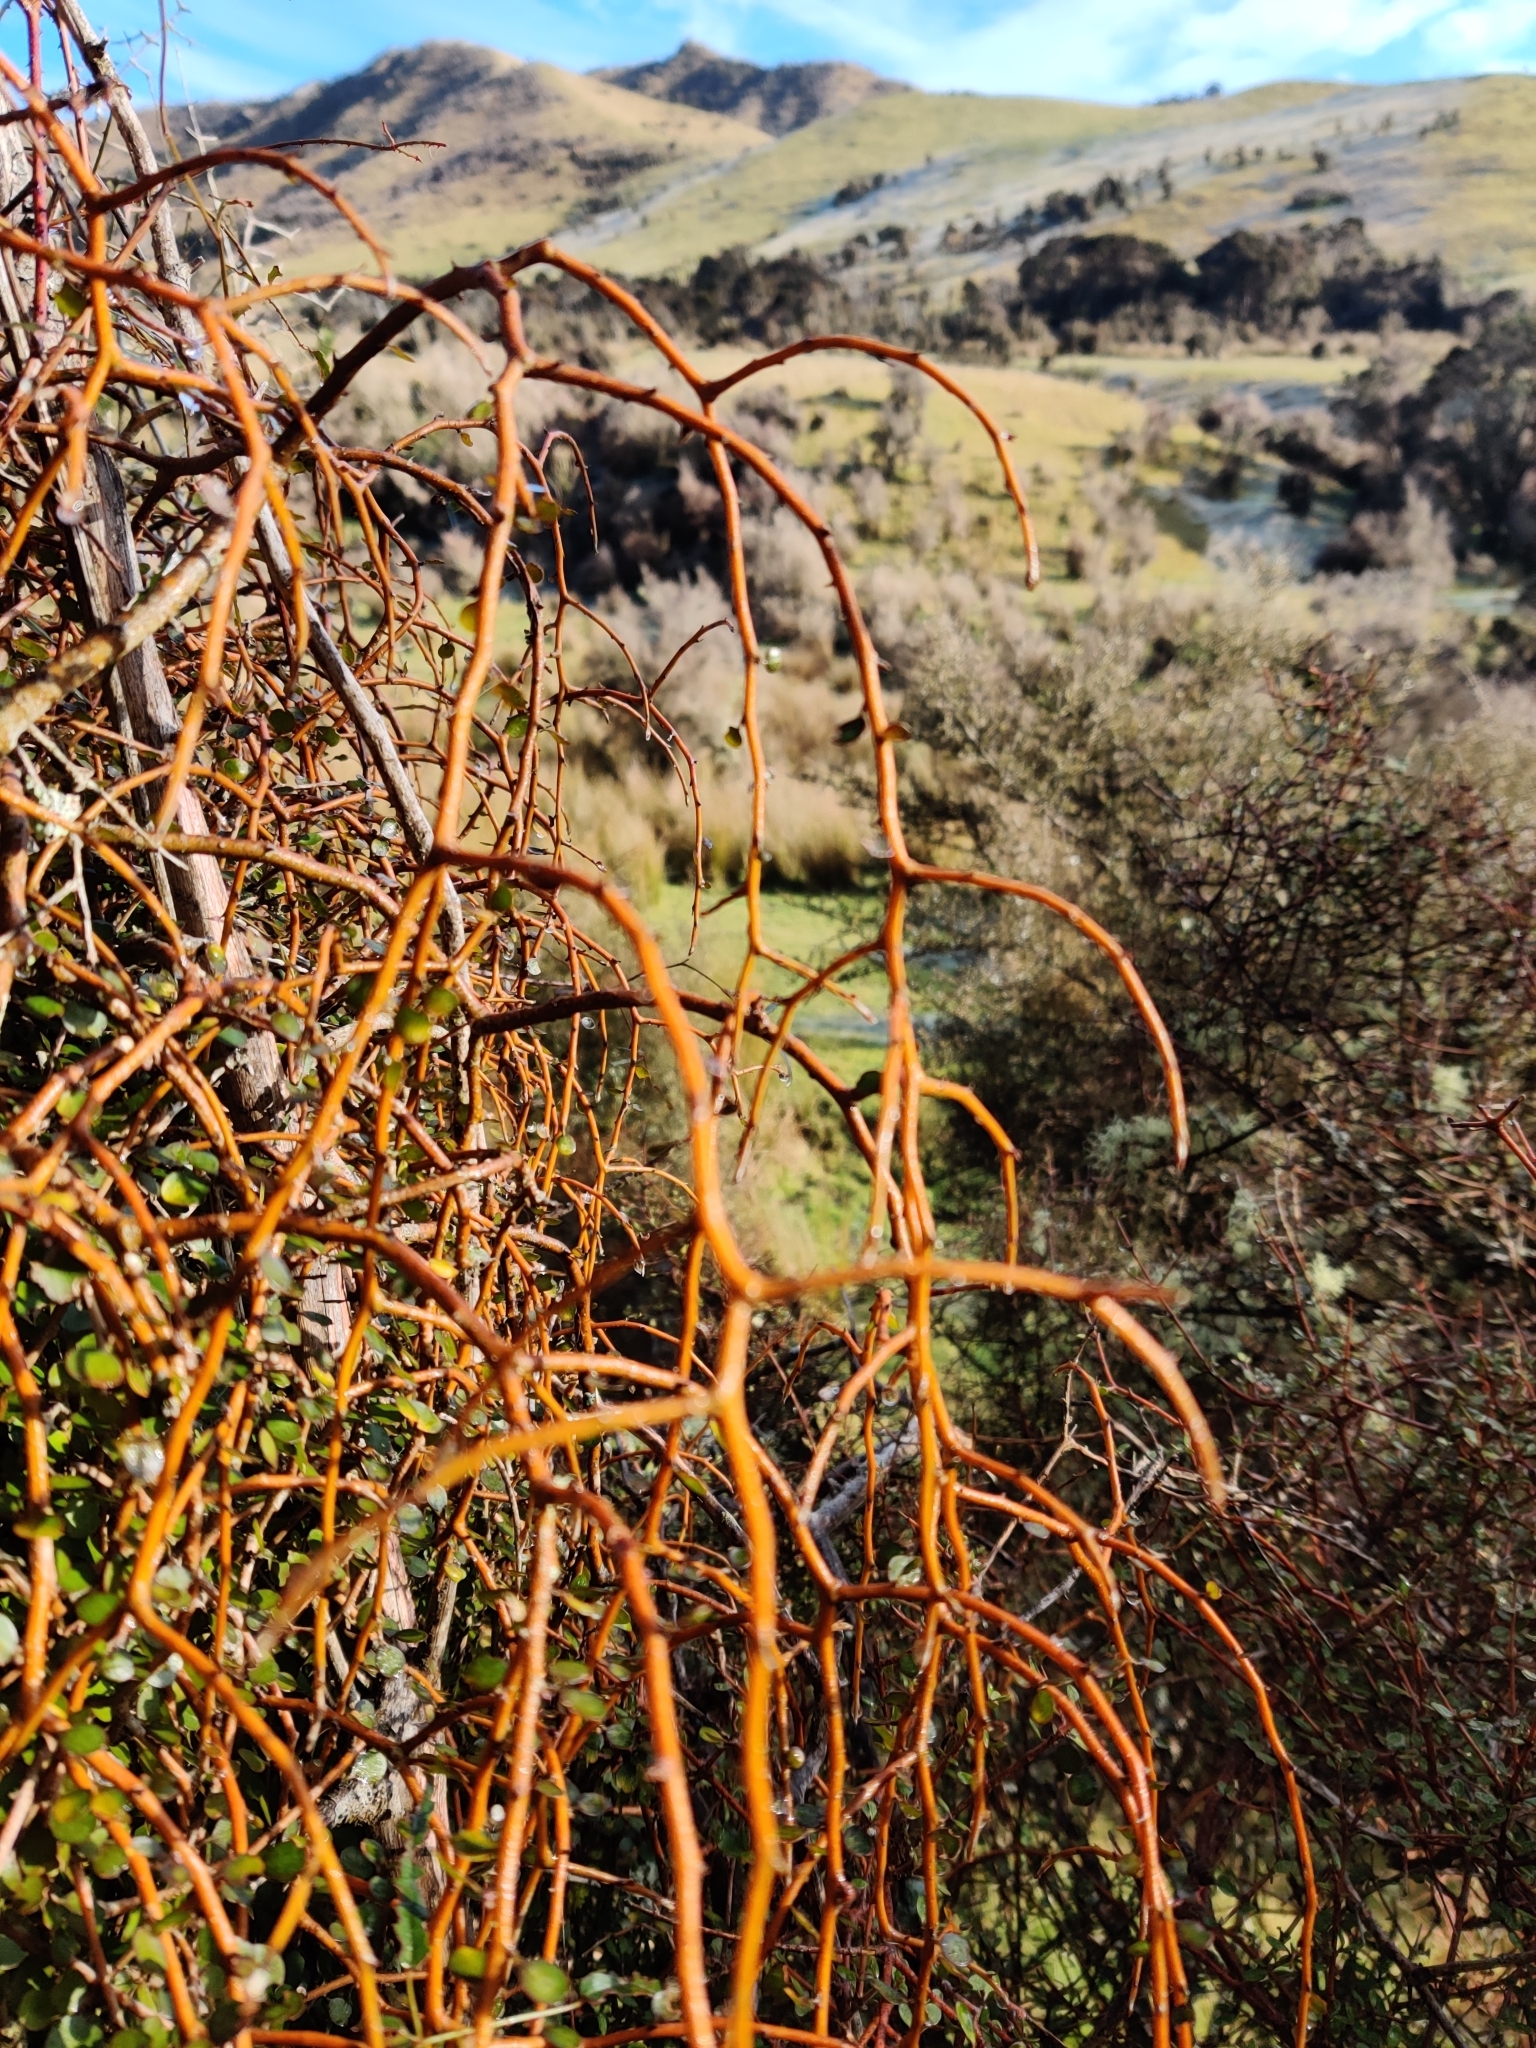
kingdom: Plantae
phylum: Tracheophyta
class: Magnoliopsida
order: Ericales
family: Primulaceae
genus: Myrsine
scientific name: Myrsine divaricata
